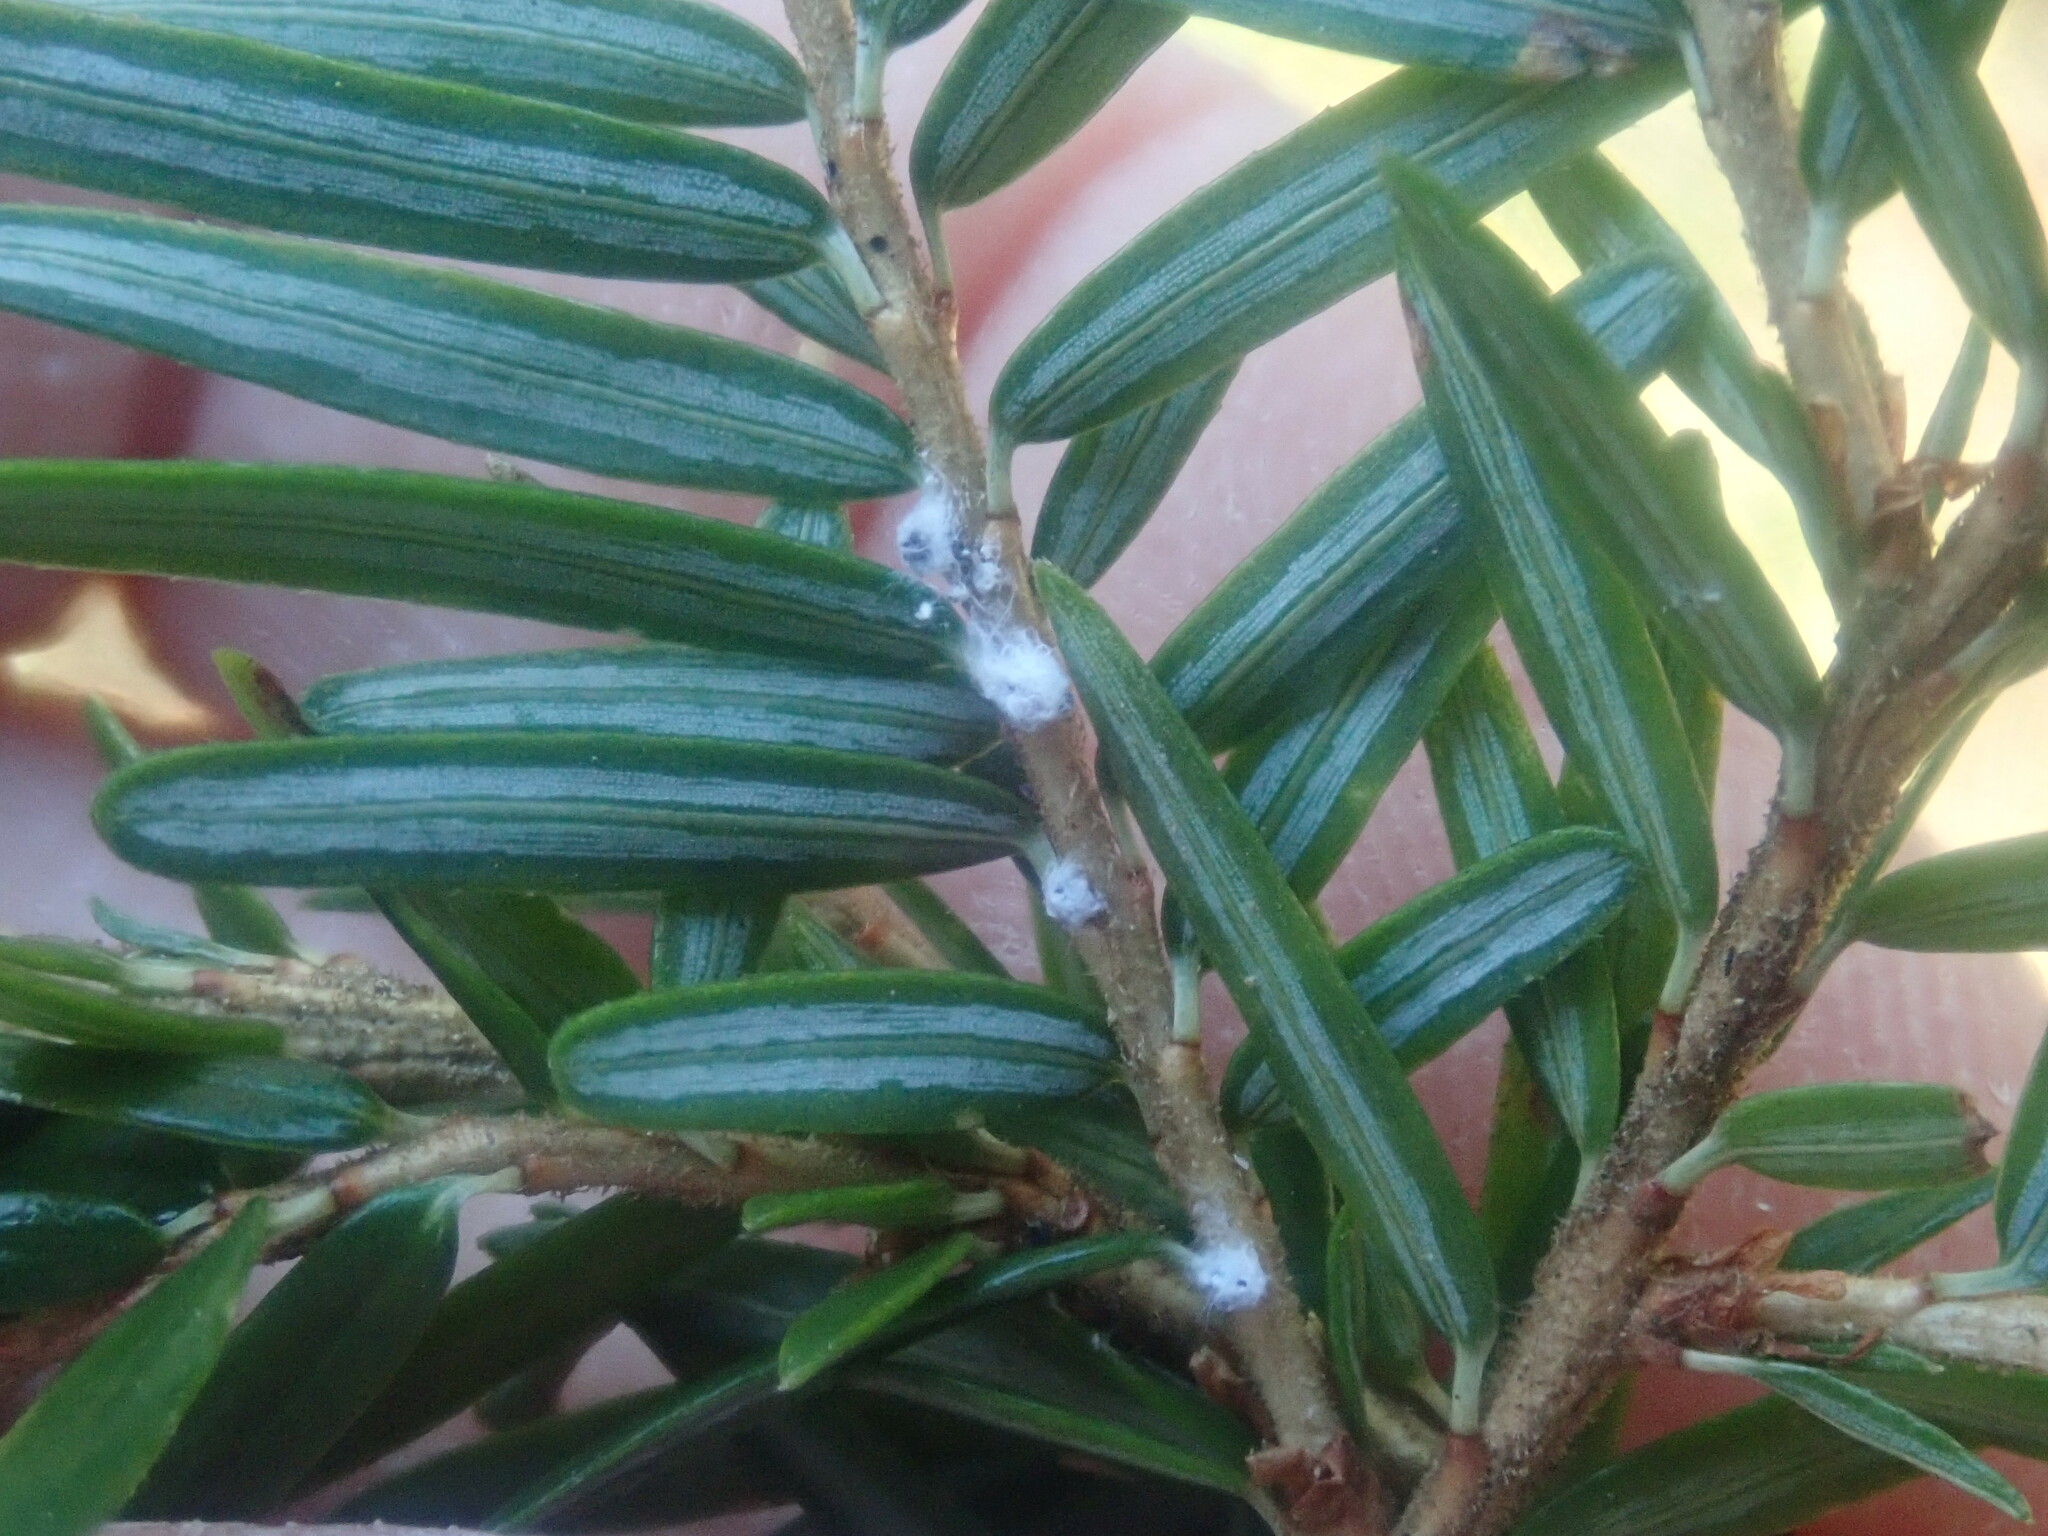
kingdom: Animalia
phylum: Arthropoda
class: Insecta
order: Hemiptera
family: Adelgidae
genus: Adelges
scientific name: Adelges tsugae
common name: Hemlock woolly adelgid
